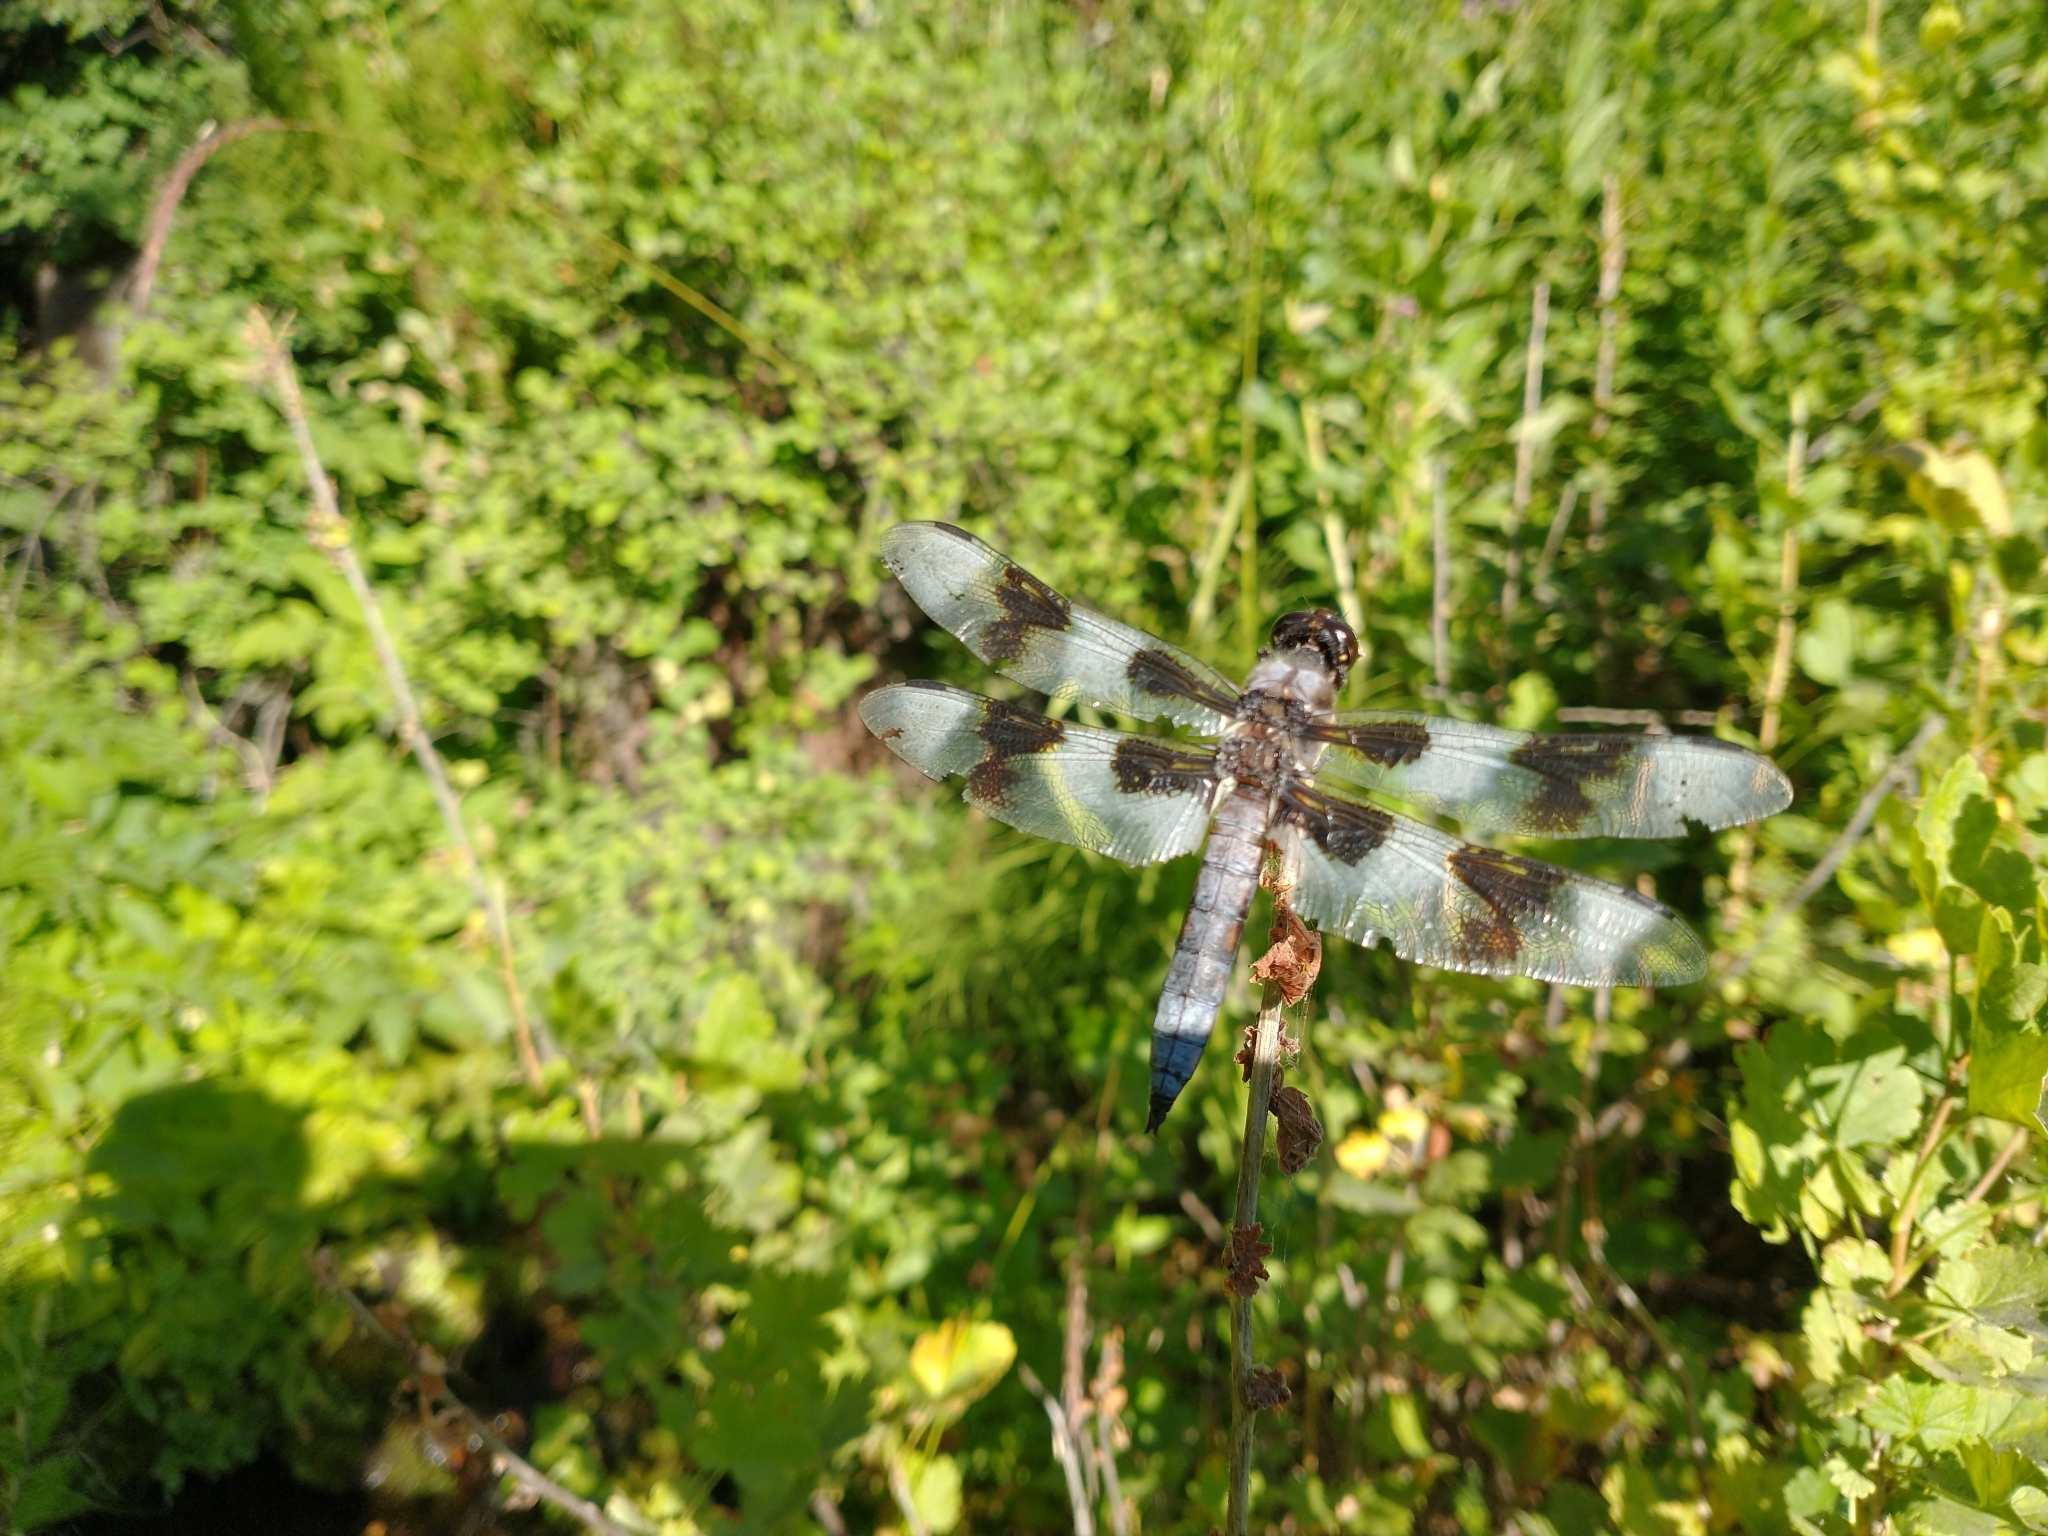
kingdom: Animalia
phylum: Arthropoda
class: Insecta
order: Odonata
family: Libellulidae
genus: Libellula
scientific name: Libellula forensis
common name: Eight-spotted skimmer
